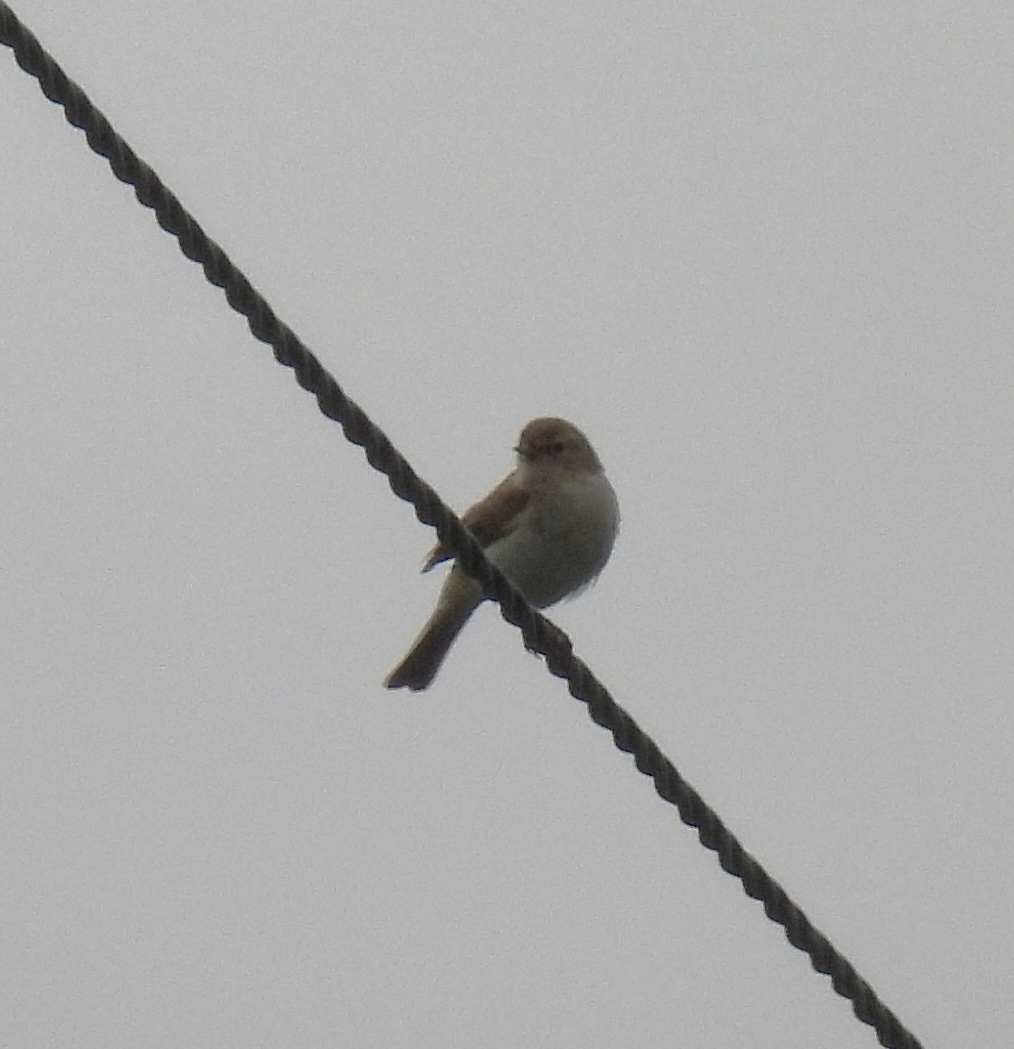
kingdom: Animalia
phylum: Chordata
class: Aves
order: Passeriformes
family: Phylloscopidae
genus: Phylloscopus
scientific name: Phylloscopus collybita
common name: Common chiffchaff
